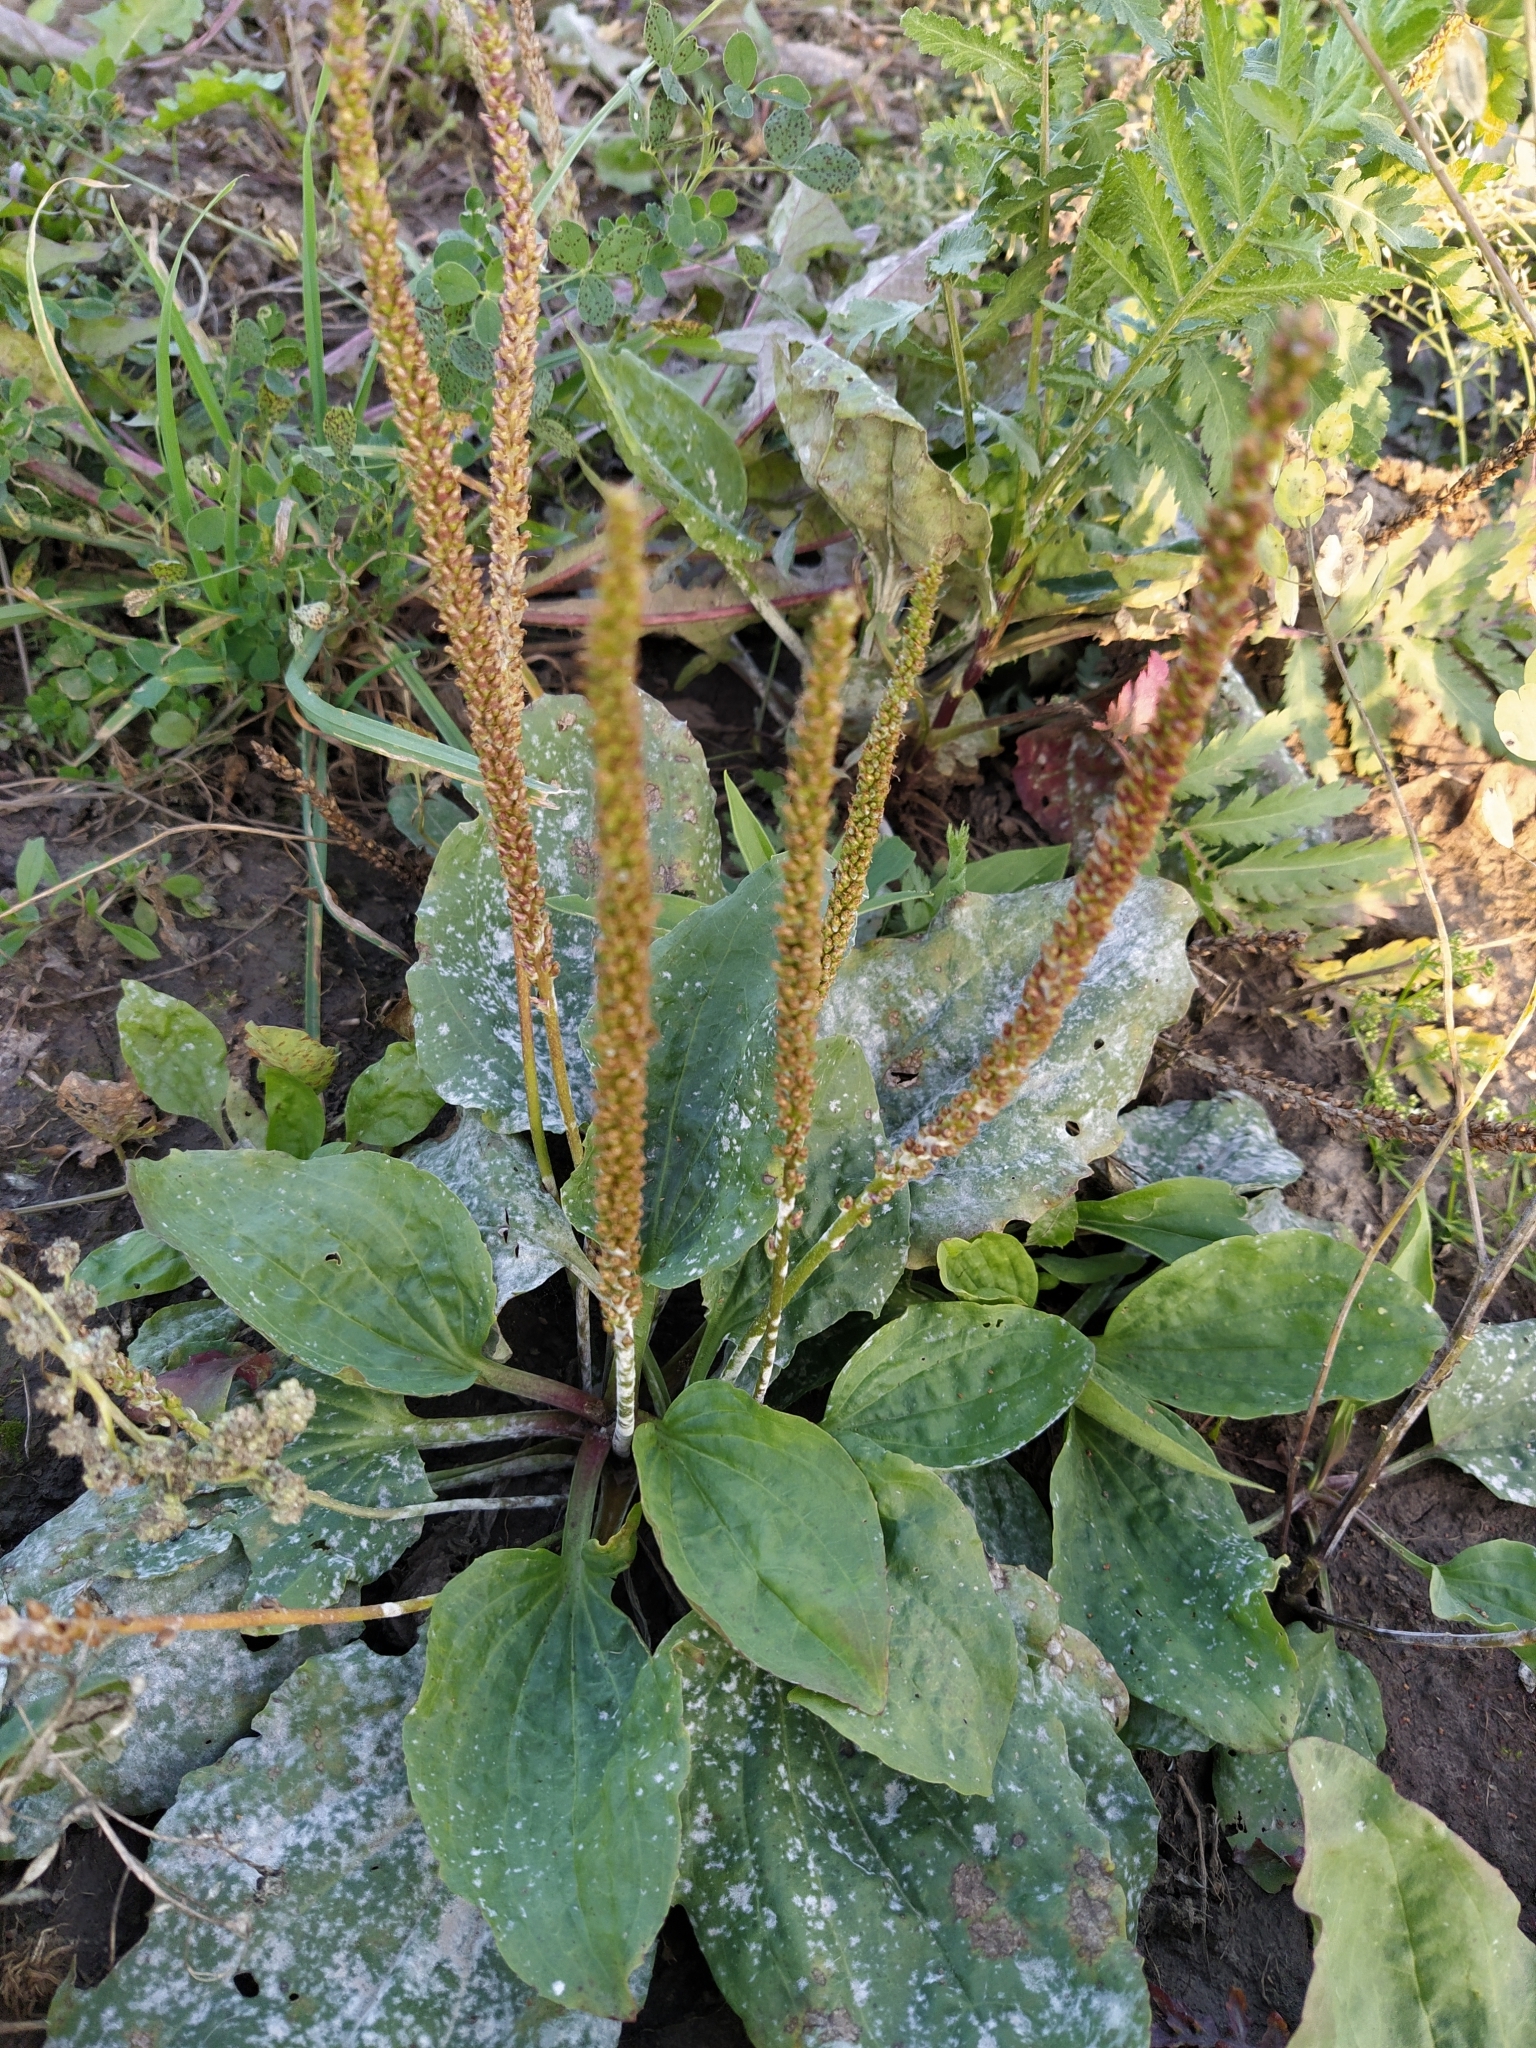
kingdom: Plantae
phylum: Tracheophyta
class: Magnoliopsida
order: Lamiales
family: Plantaginaceae
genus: Plantago
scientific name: Plantago major
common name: Common plantain
